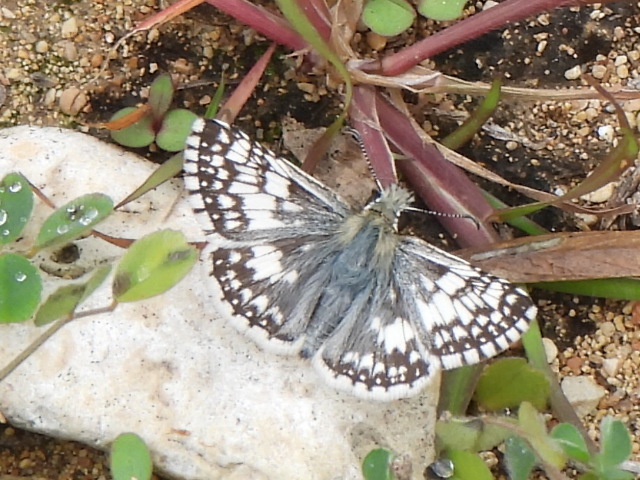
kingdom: Animalia
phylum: Arthropoda
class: Insecta
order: Lepidoptera
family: Hesperiidae
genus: Burnsius
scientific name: Burnsius
